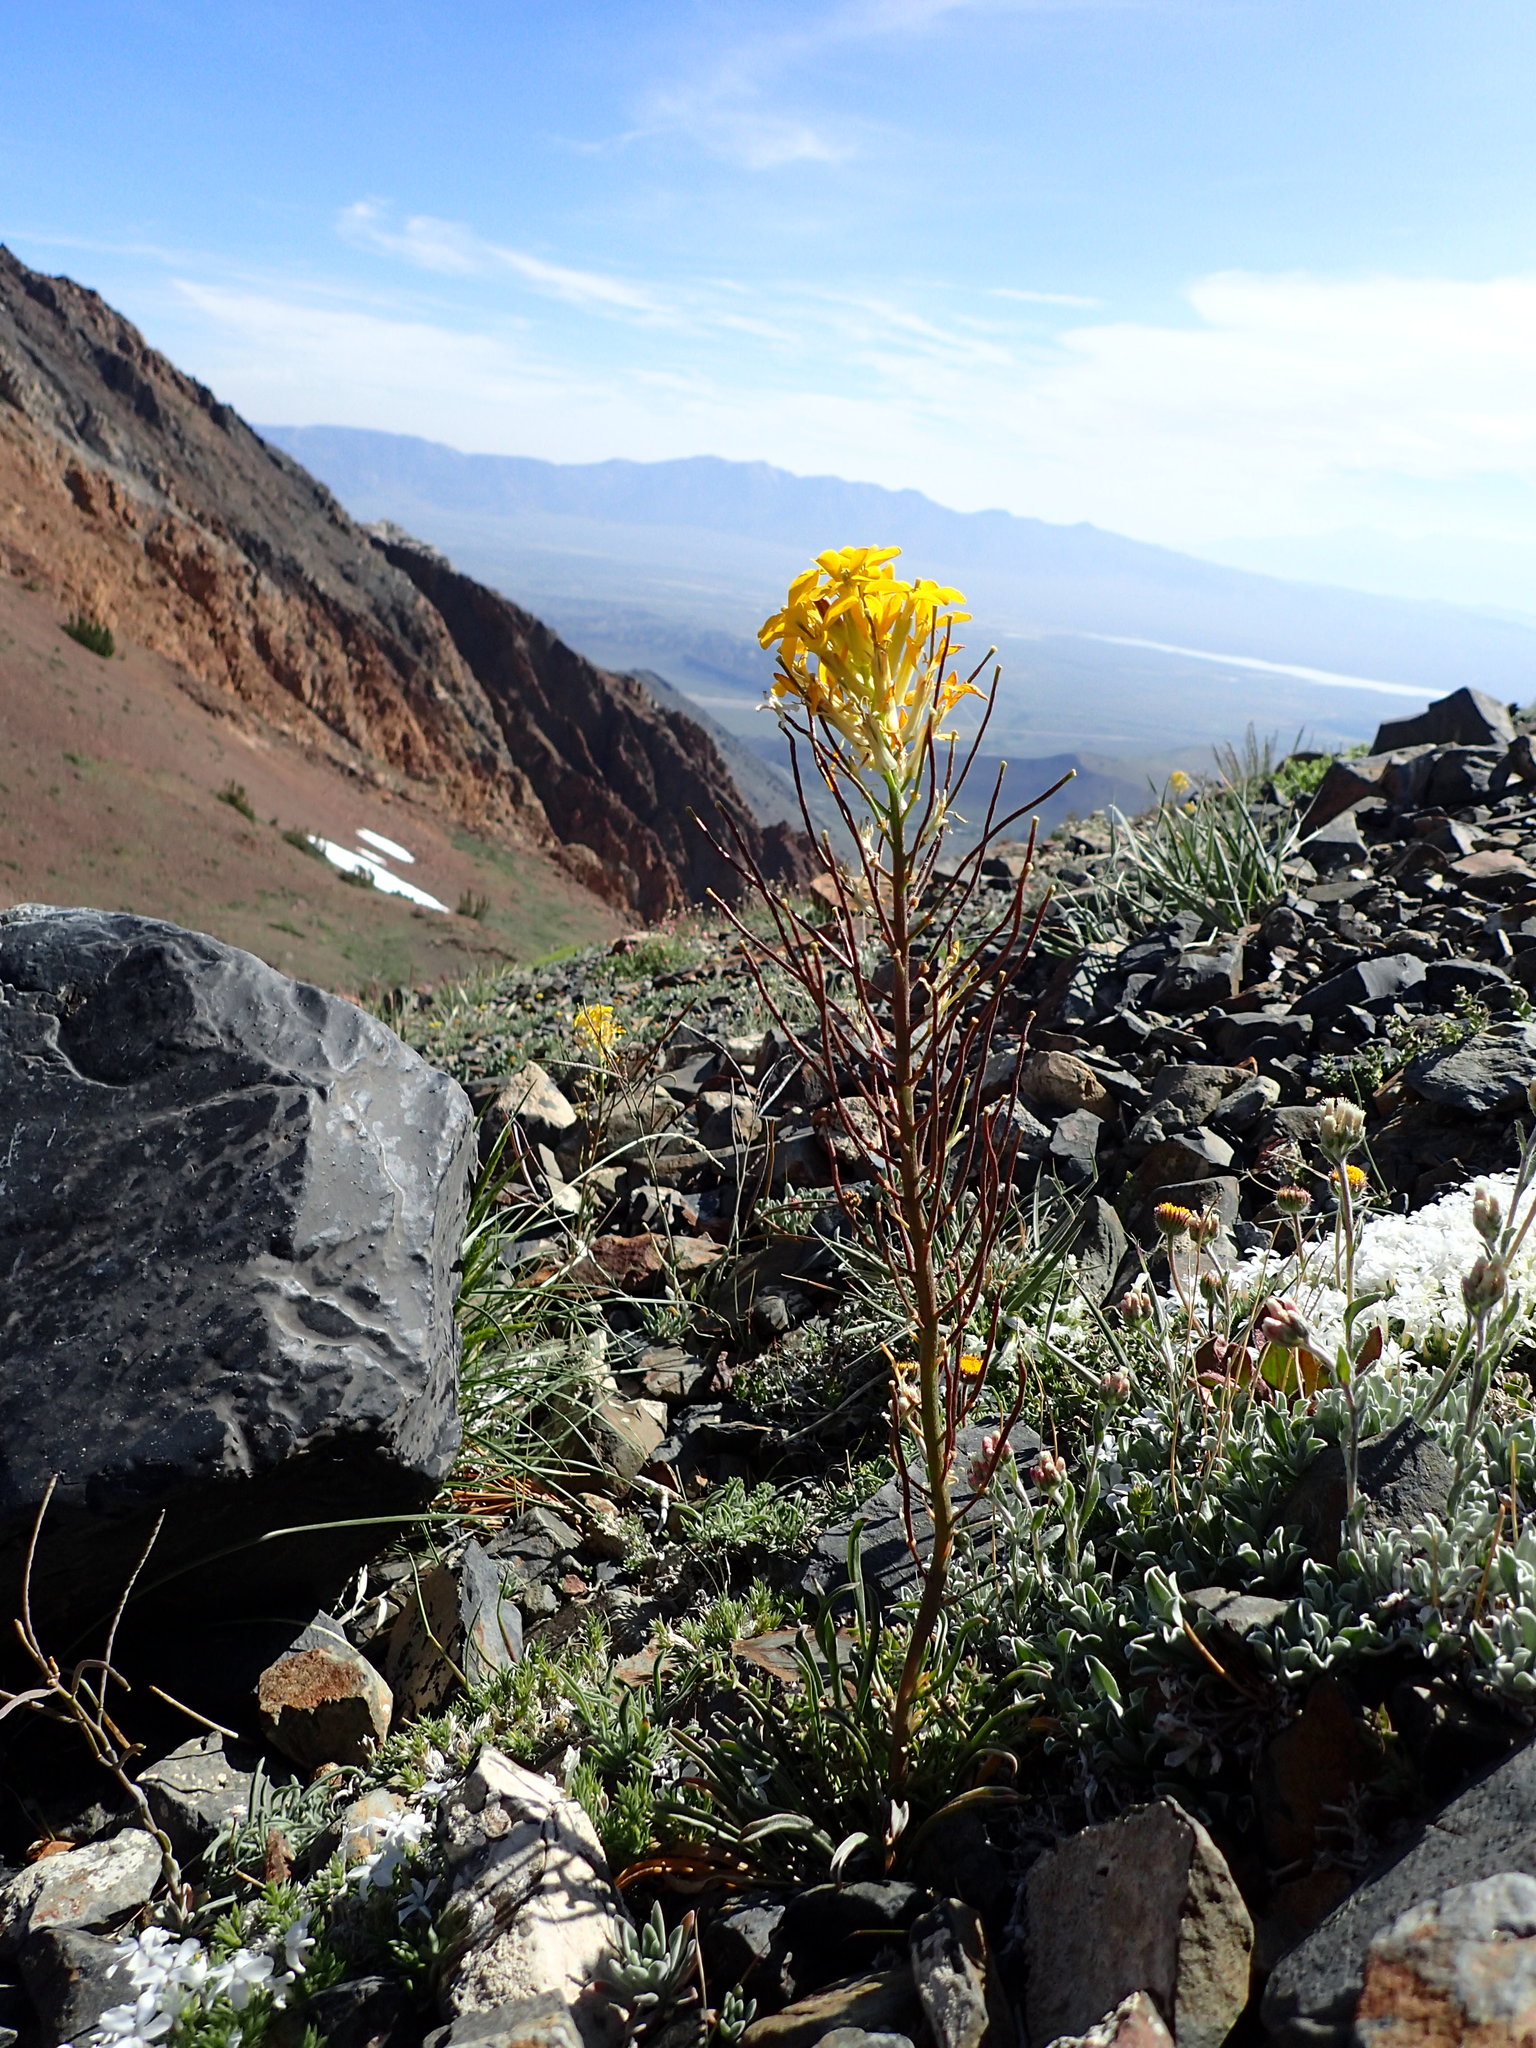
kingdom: Plantae
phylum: Tracheophyta
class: Magnoliopsida
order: Brassicales
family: Brassicaceae
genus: Erysimum
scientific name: Erysimum capitatum
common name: Western wallflower
